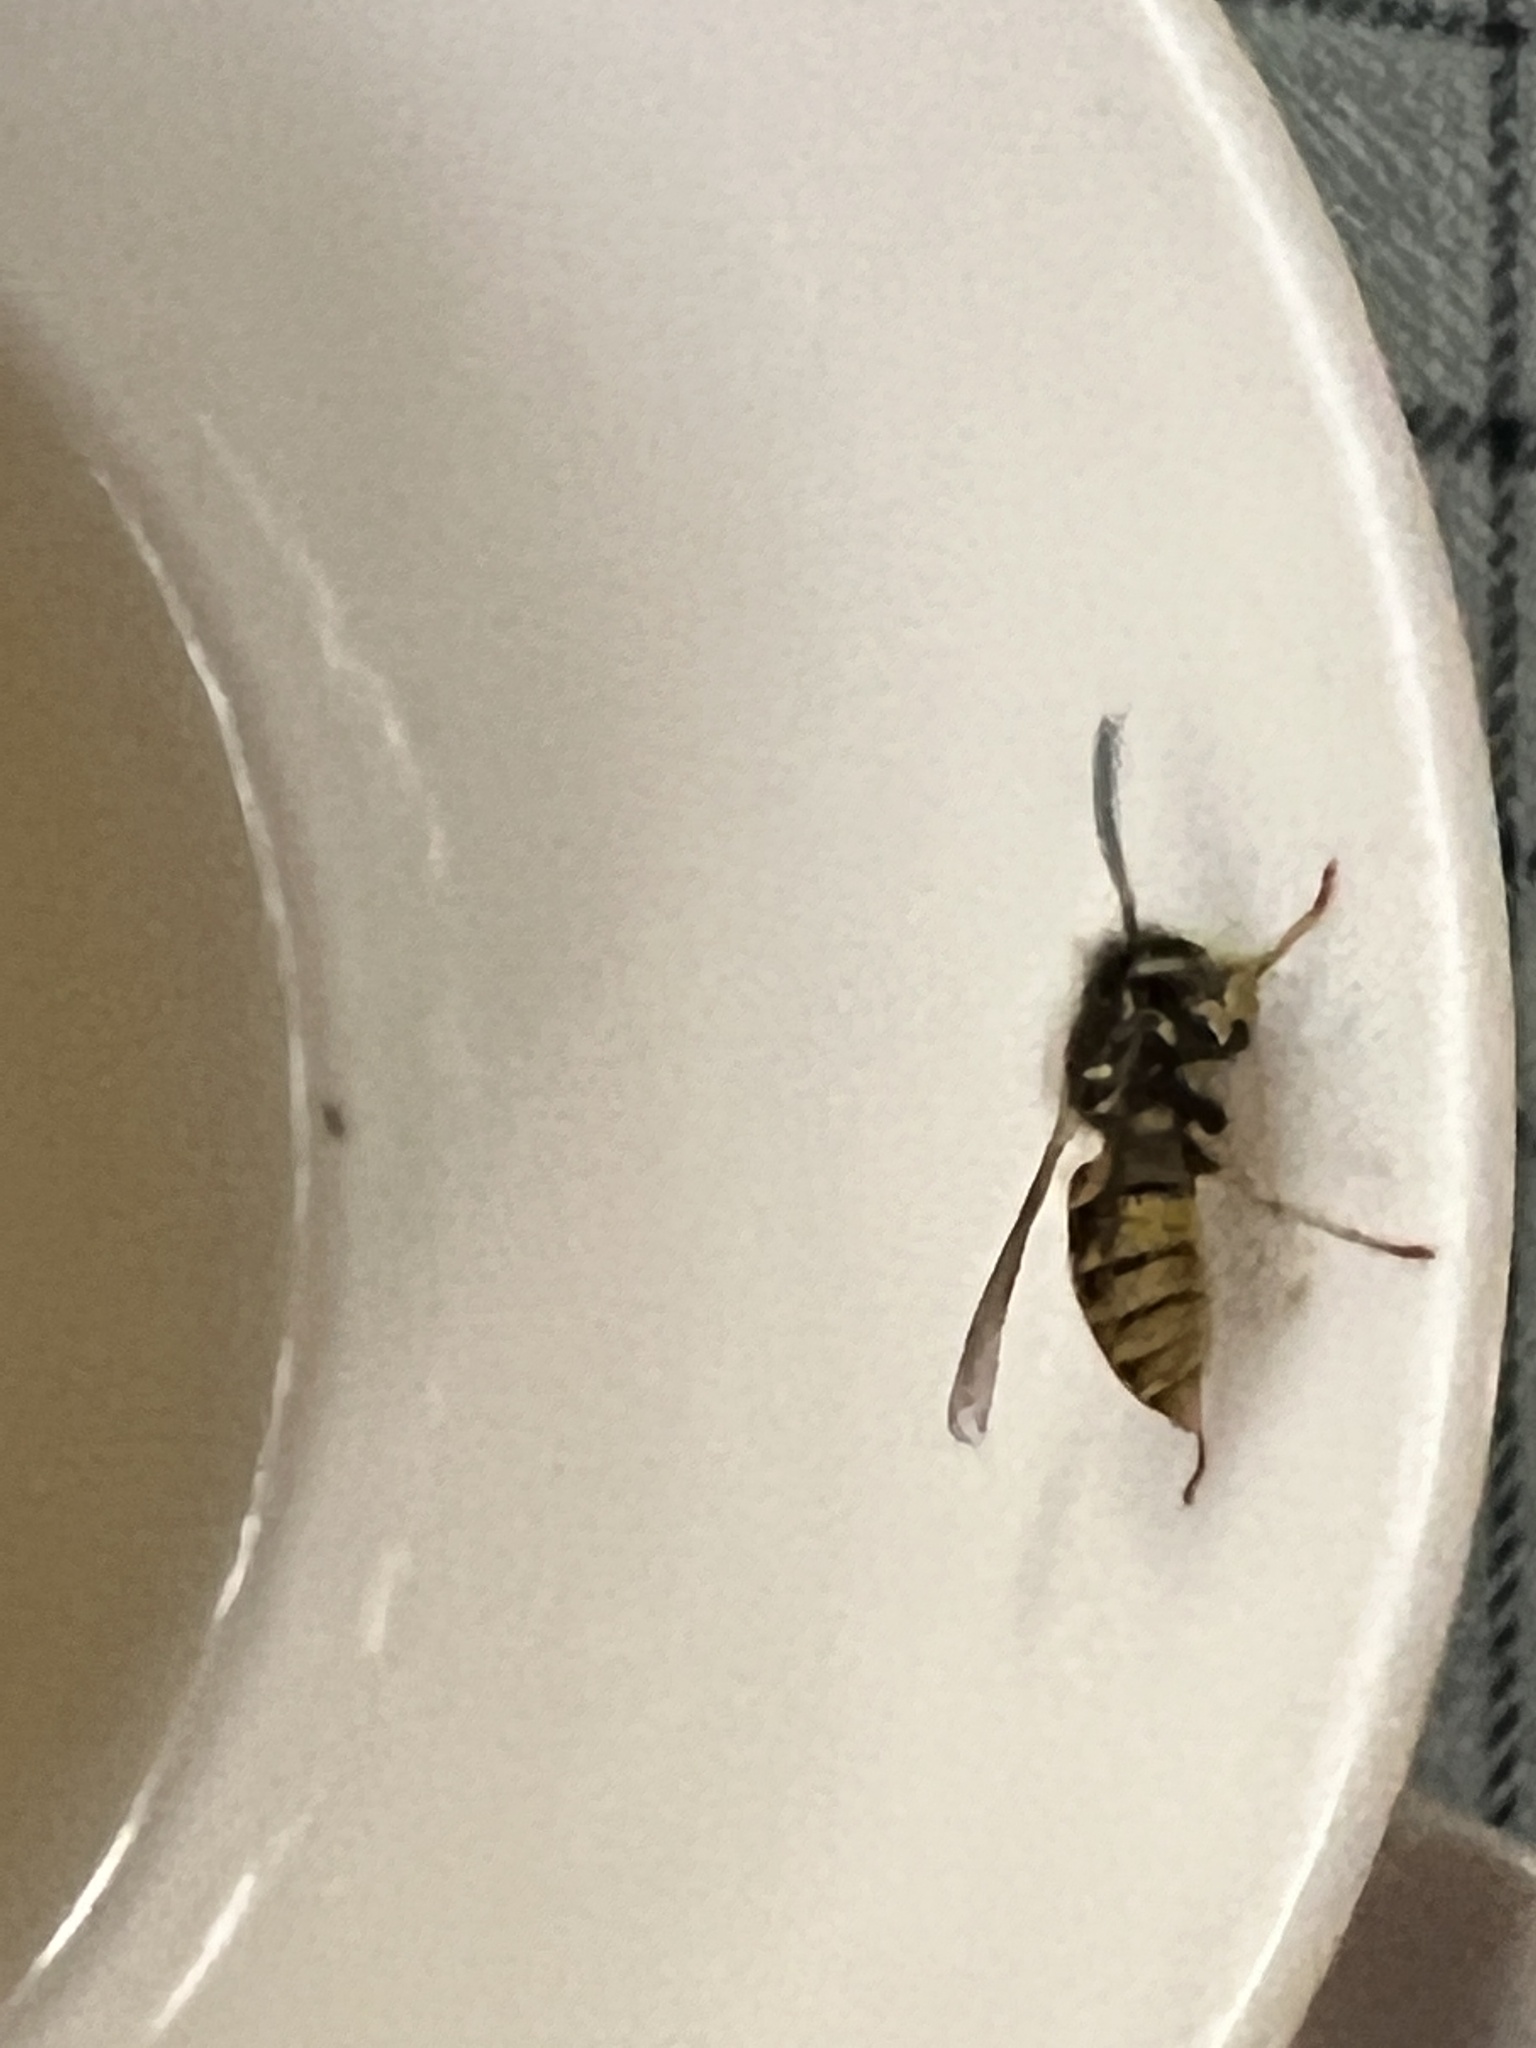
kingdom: Animalia
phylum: Arthropoda
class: Insecta
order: Hymenoptera
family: Vespidae
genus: Vespula
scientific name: Vespula vulgaris
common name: Common wasp
